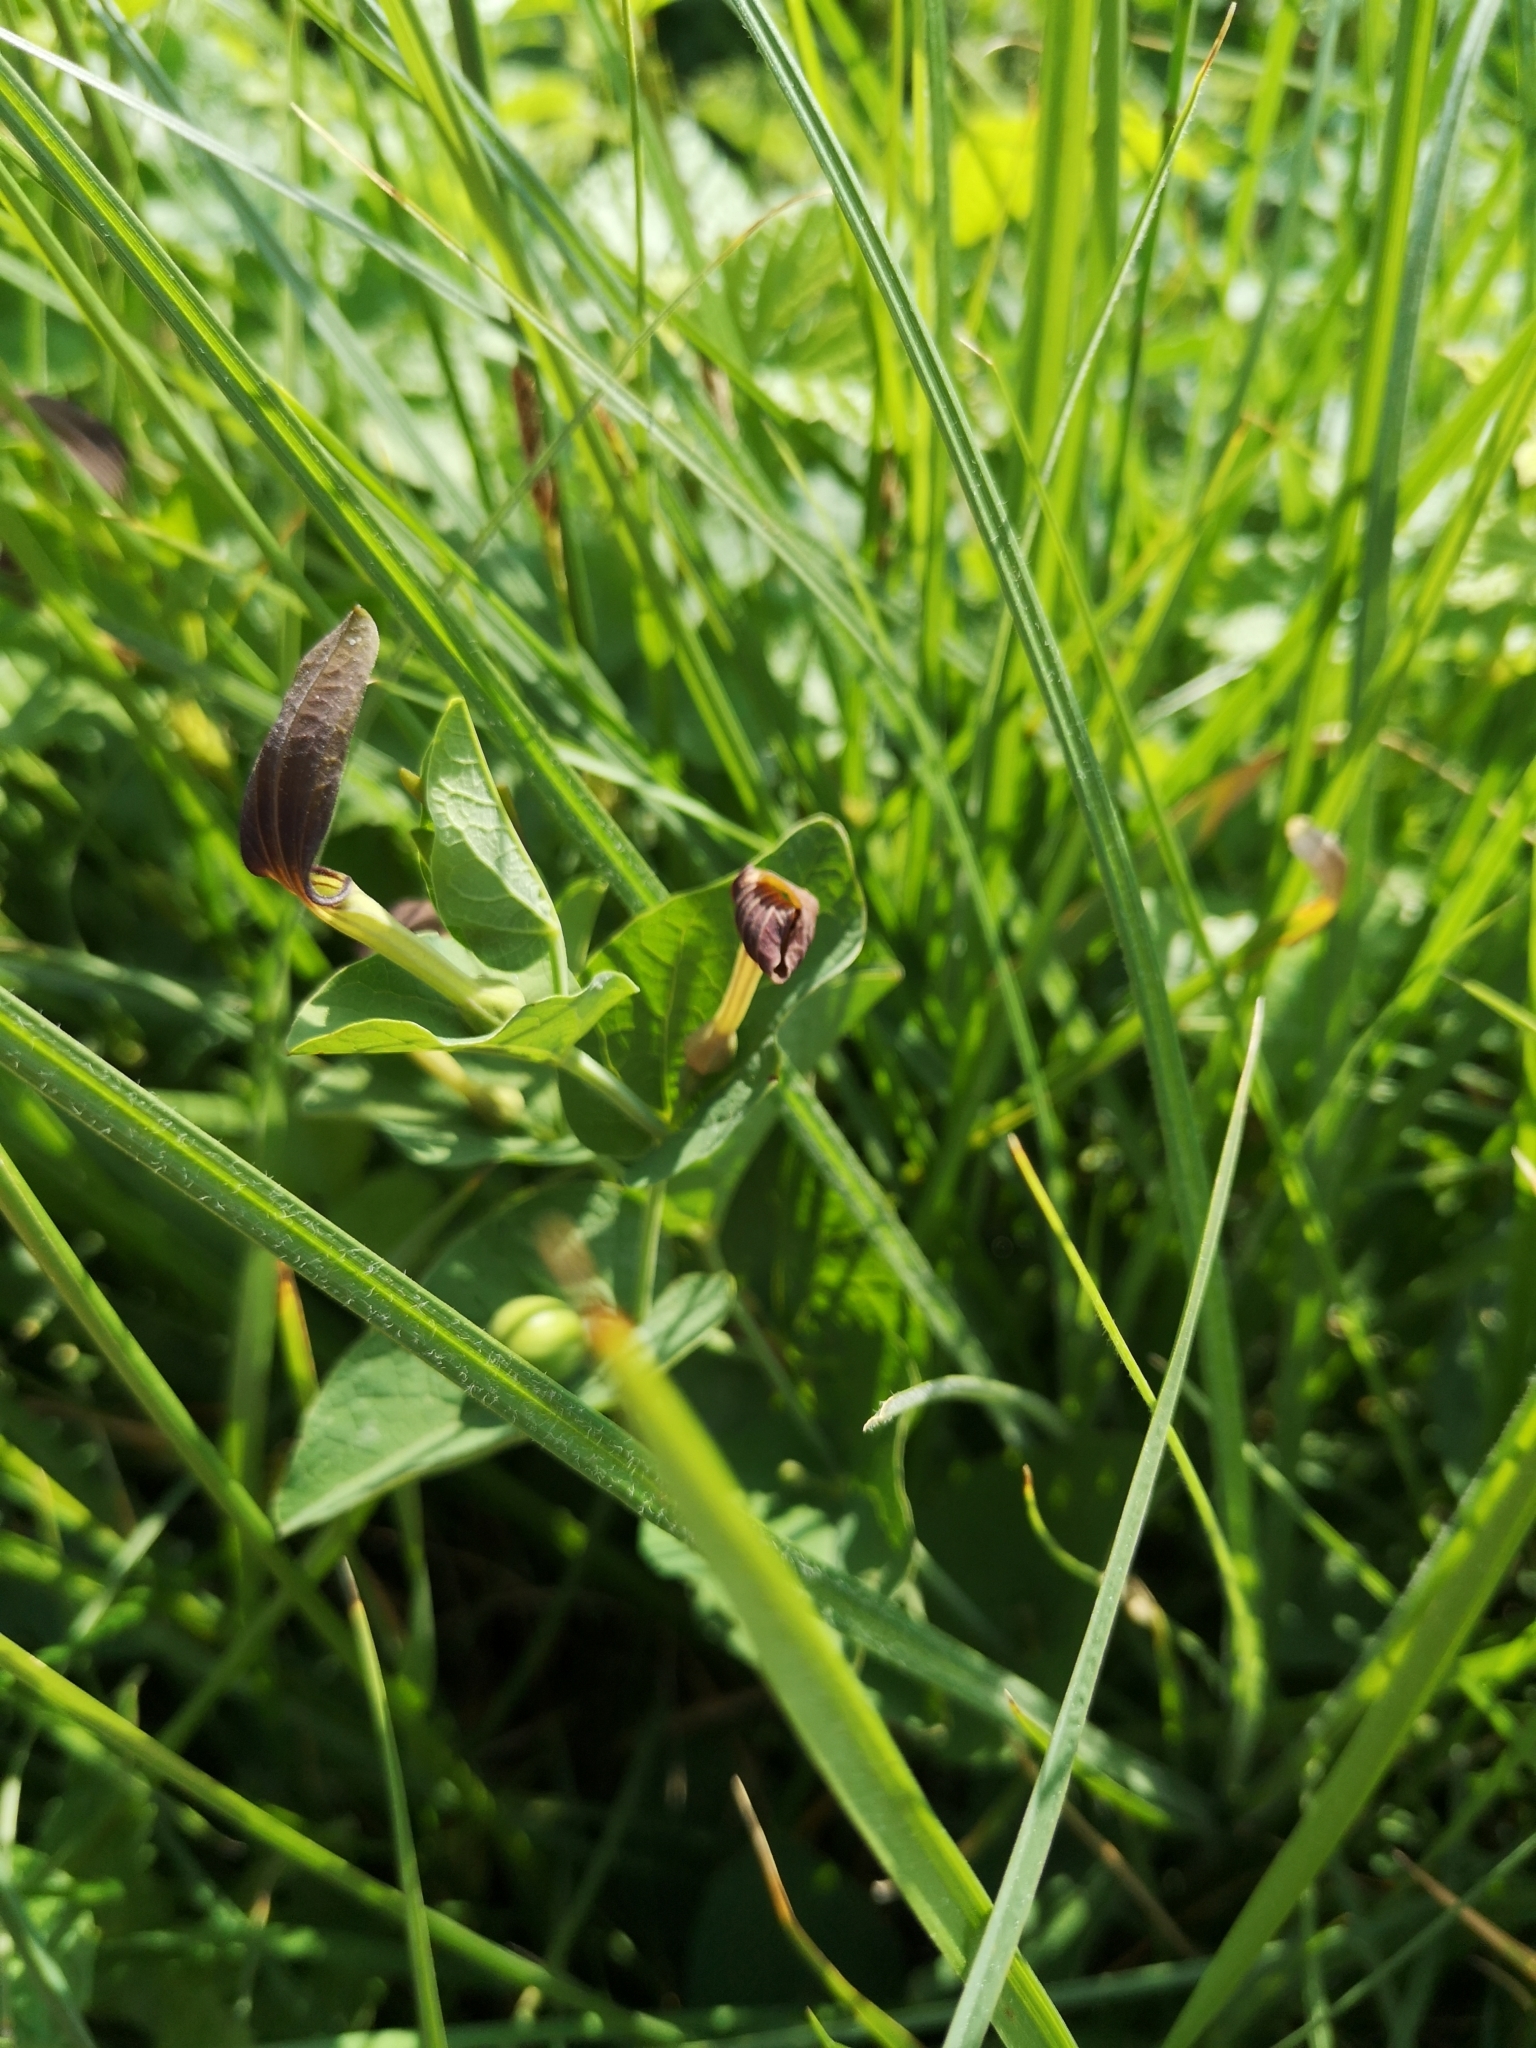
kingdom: Plantae
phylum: Tracheophyta
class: Magnoliopsida
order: Piperales
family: Aristolochiaceae
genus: Aristolochia
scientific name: Aristolochia rotunda
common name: Smearwort
